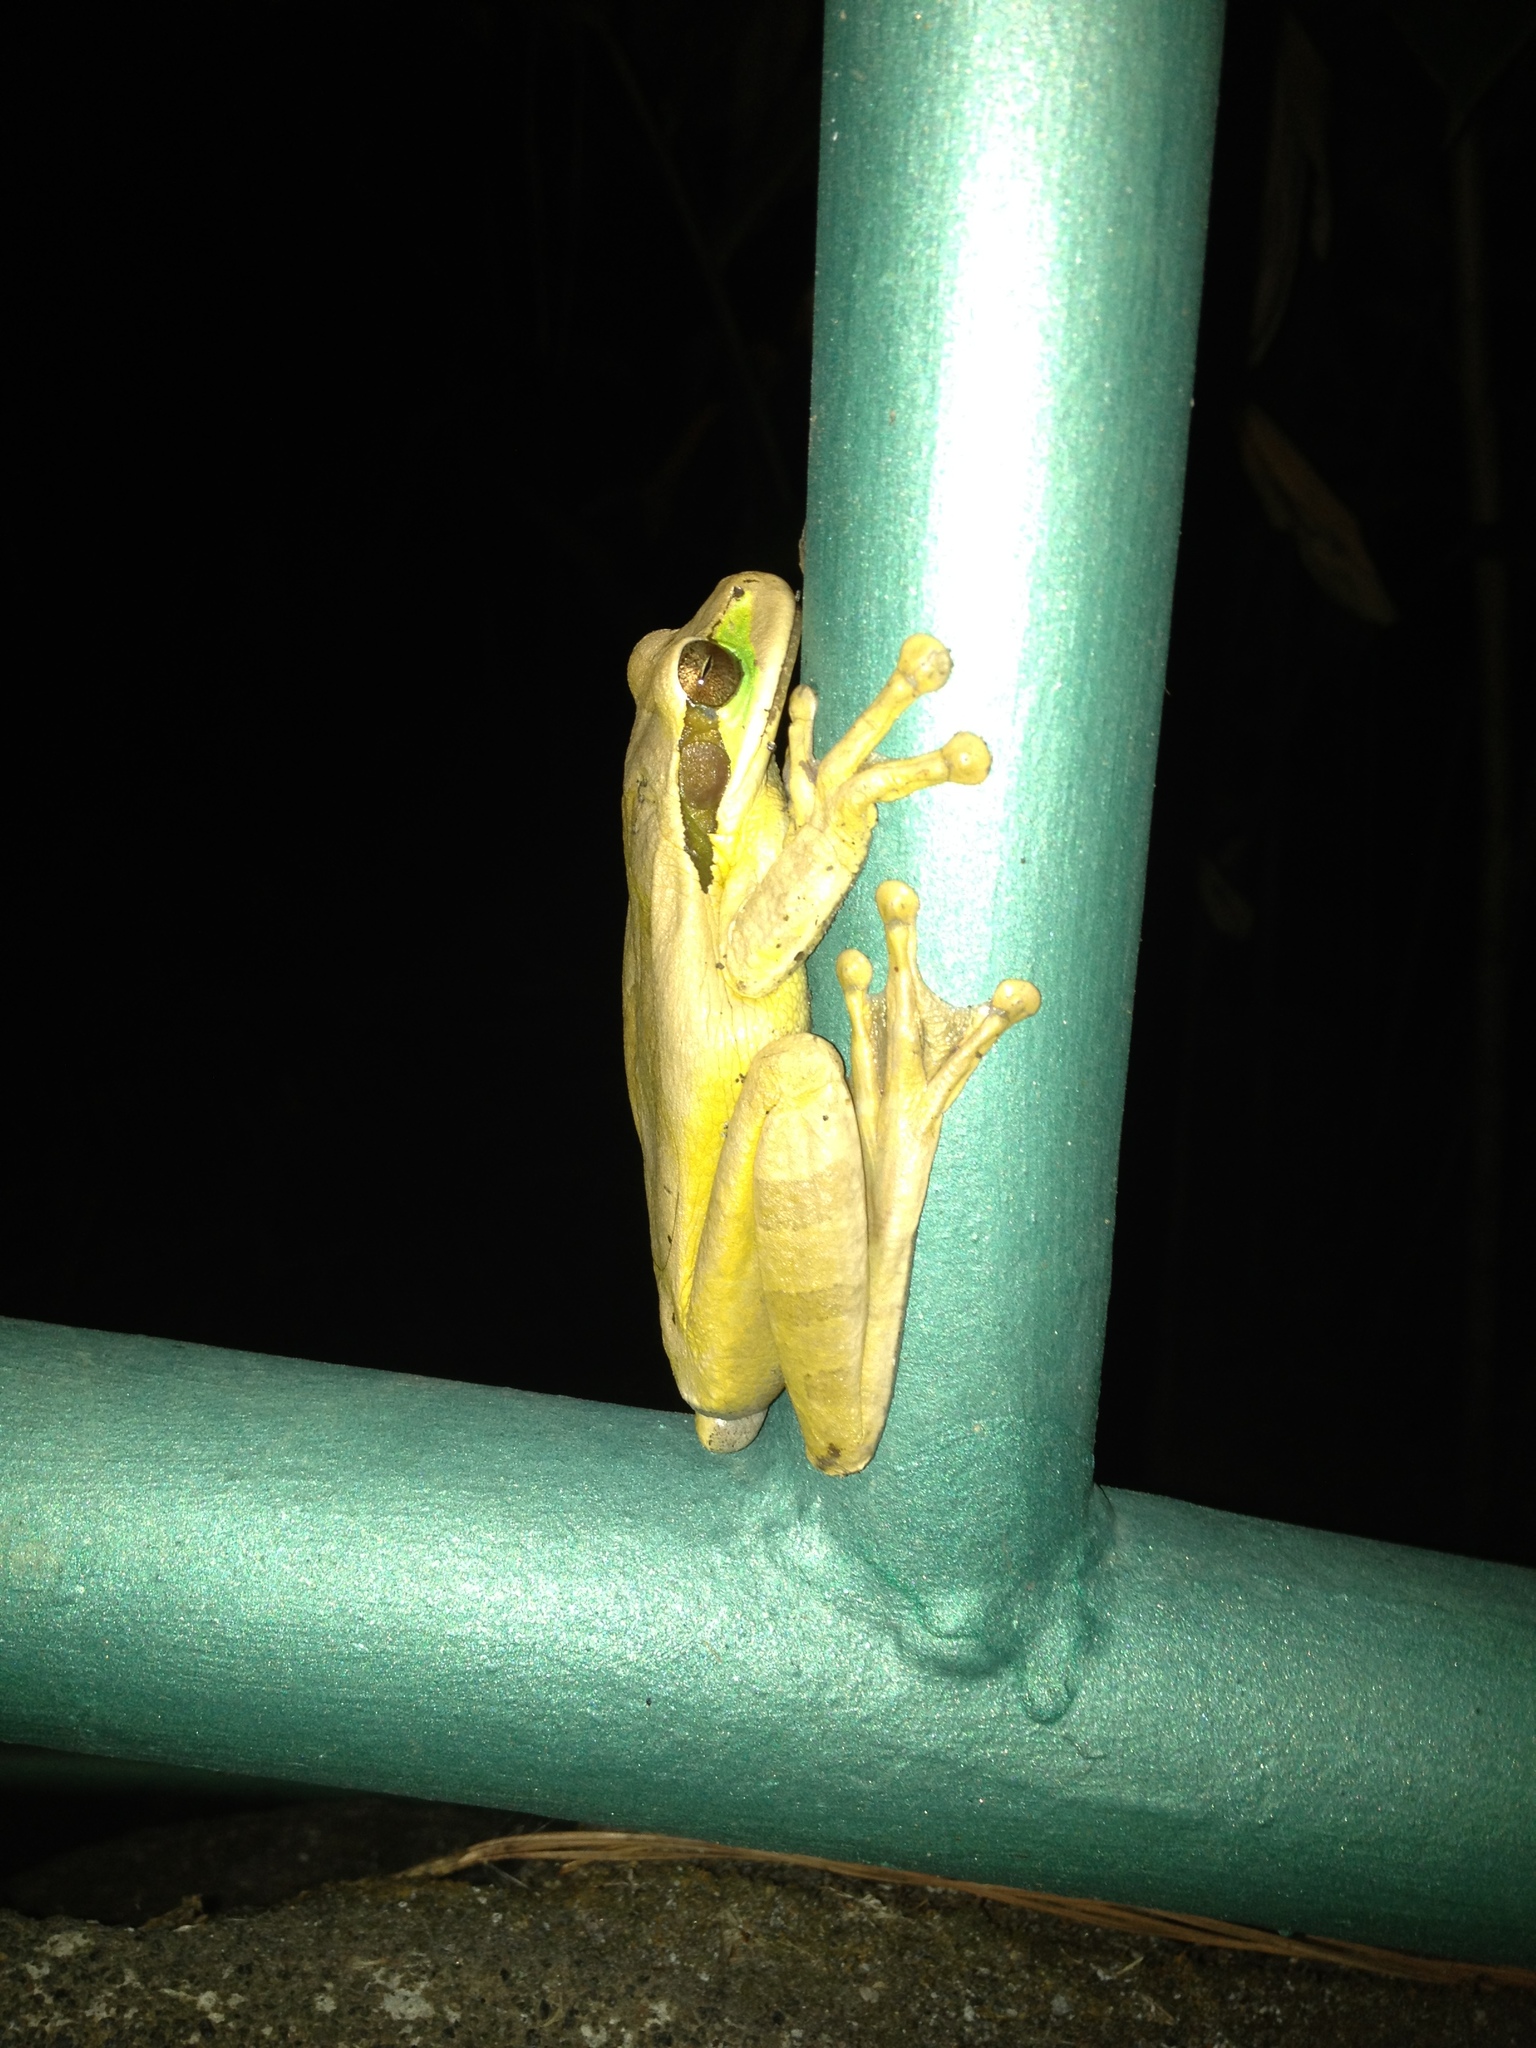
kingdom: Animalia
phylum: Chordata
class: Amphibia
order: Anura
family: Hylidae
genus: Smilisca
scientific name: Smilisca phaeota
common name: Central american smilisca
